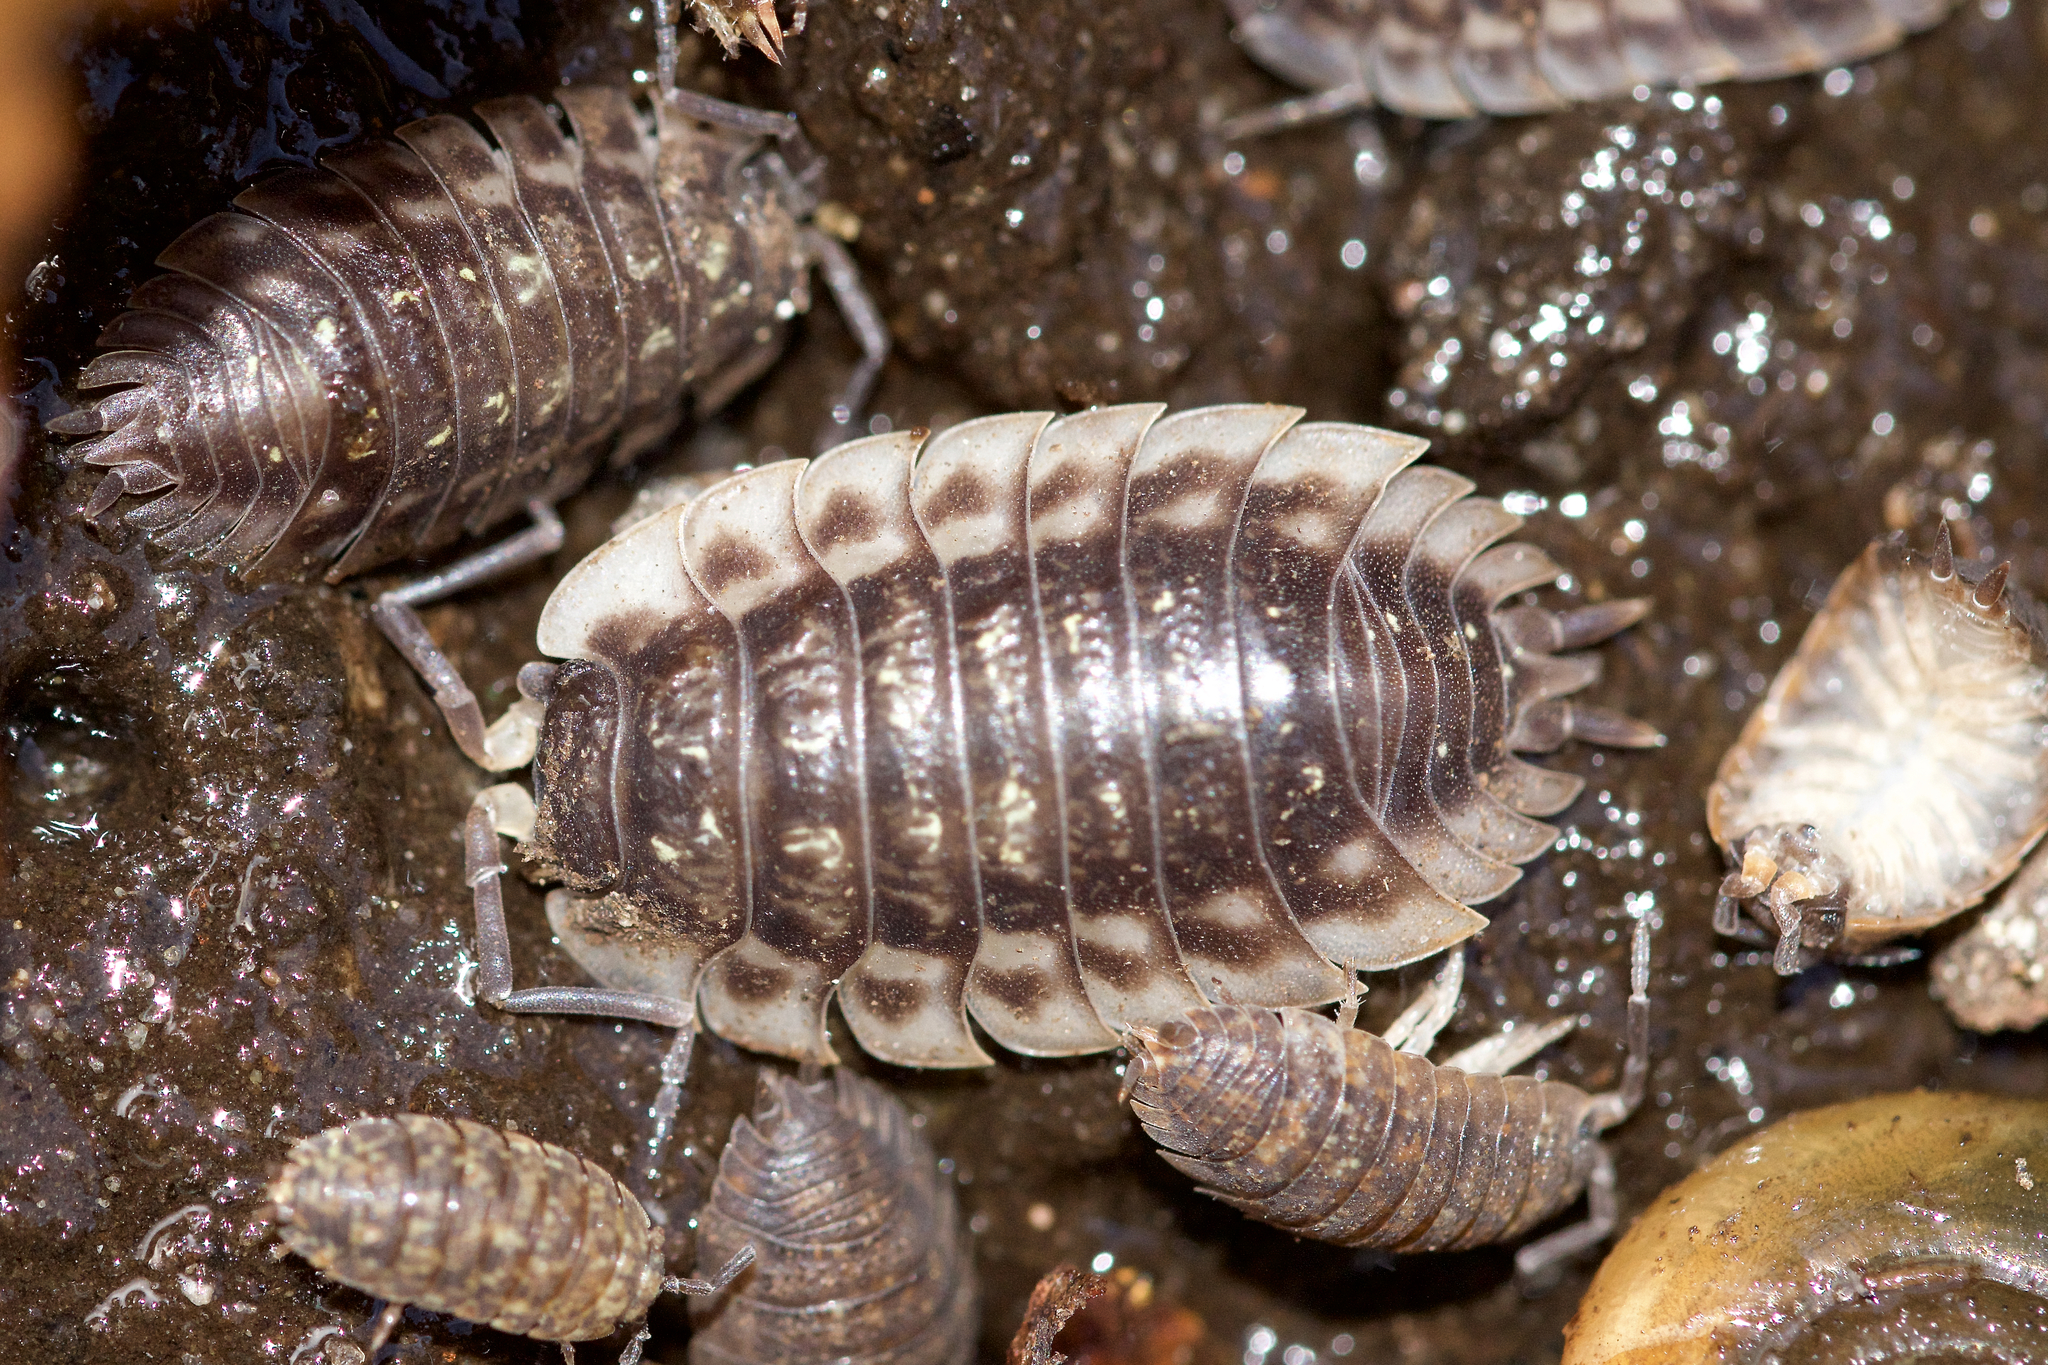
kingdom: Animalia
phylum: Arthropoda
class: Malacostraca
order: Isopoda
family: Oniscidae
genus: Oniscus
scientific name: Oniscus asellus
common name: Common shiny woodlouse
